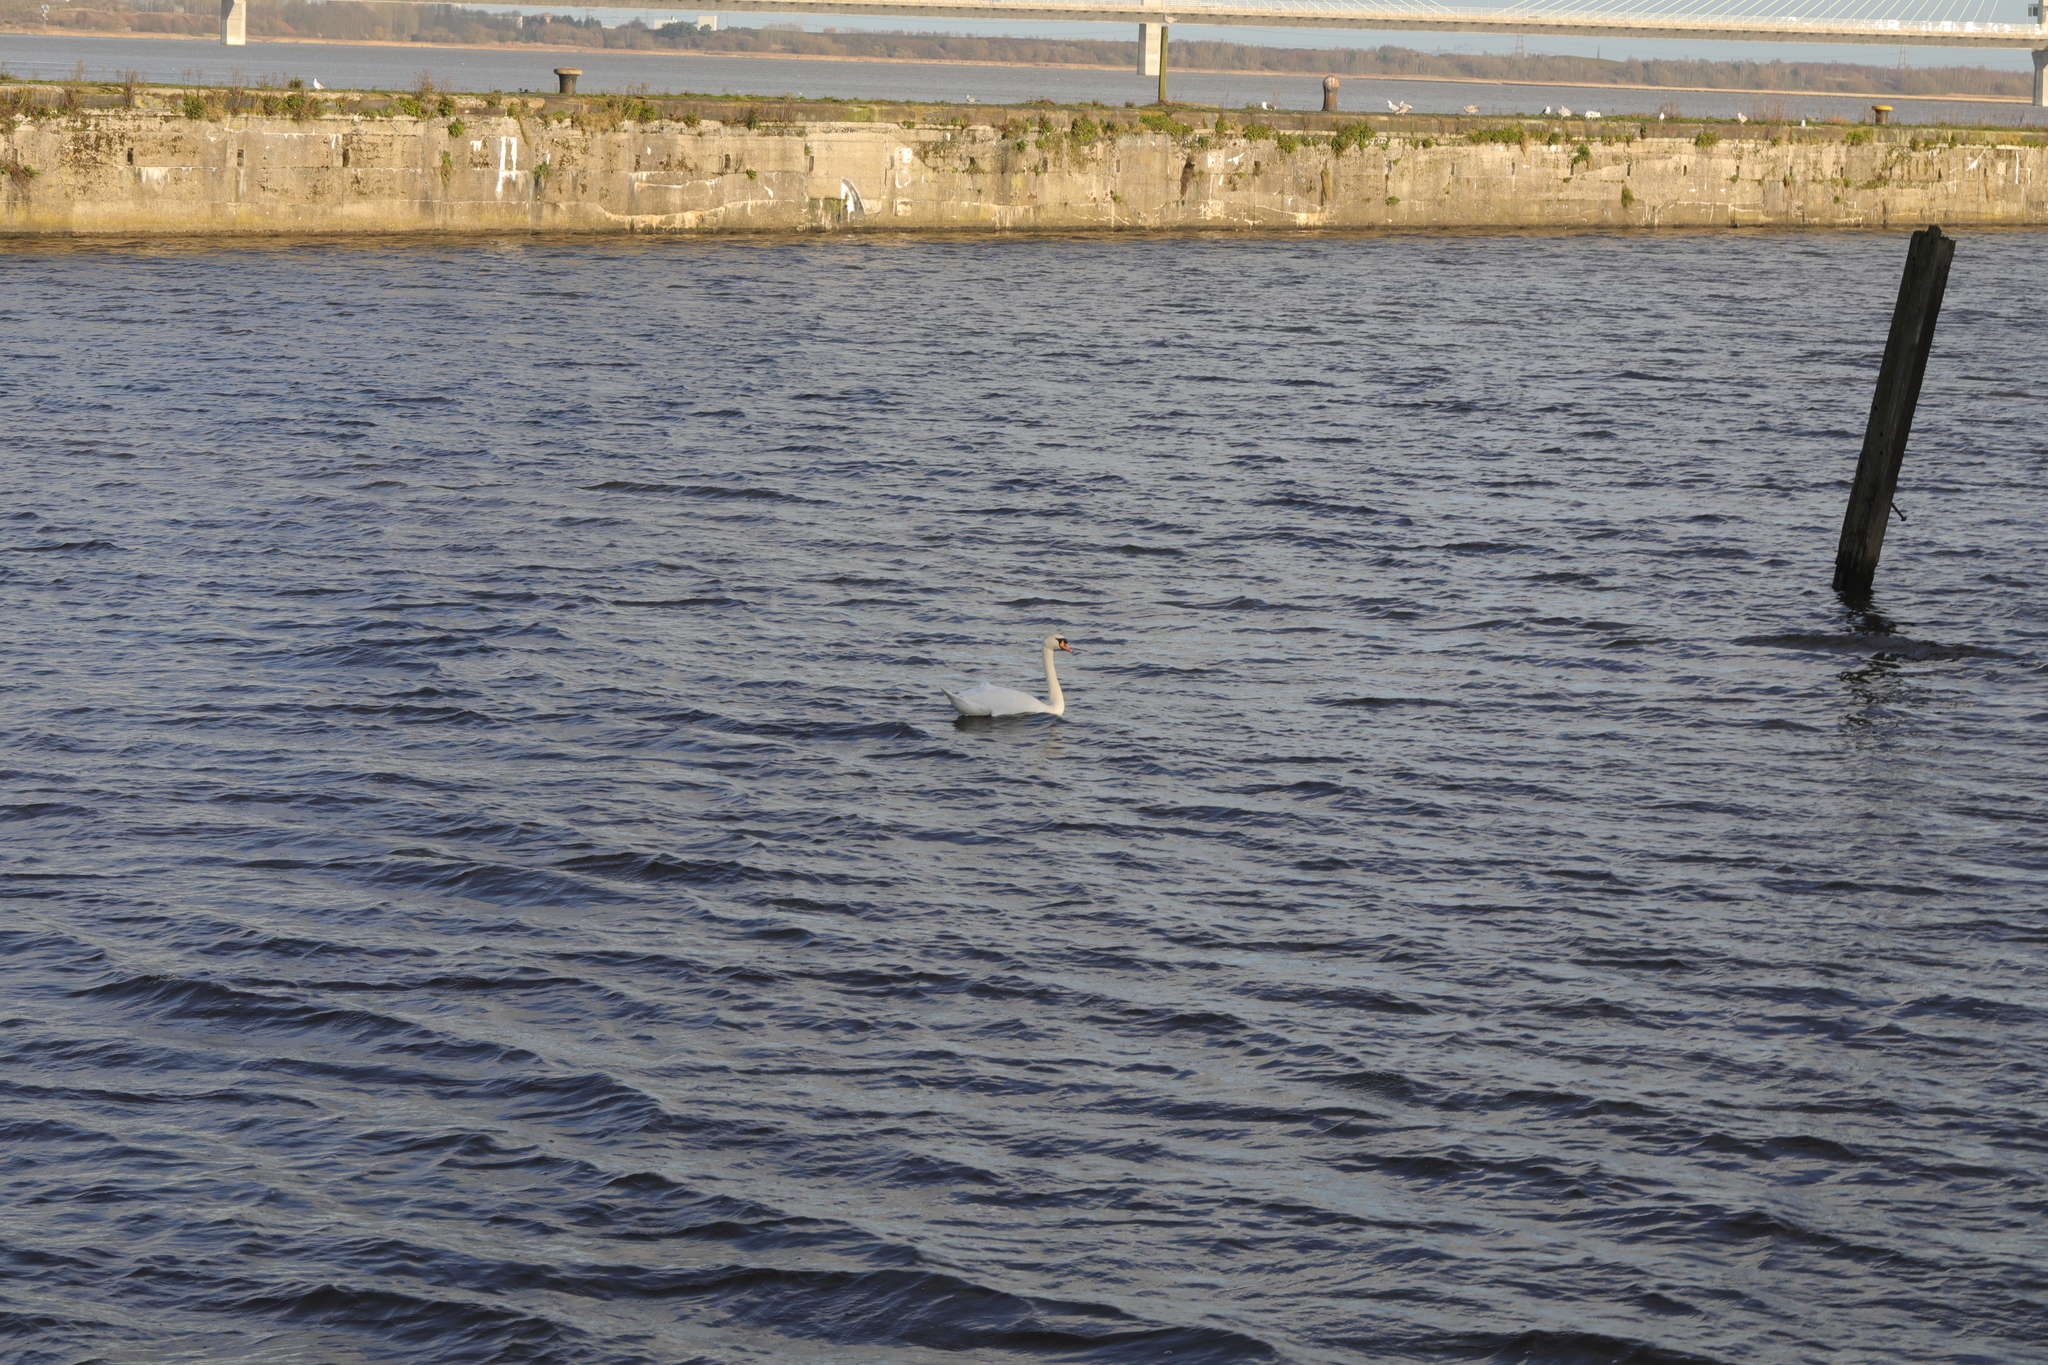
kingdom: Animalia
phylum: Chordata
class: Aves
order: Anseriformes
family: Anatidae
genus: Cygnus
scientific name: Cygnus olor
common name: Mute swan
